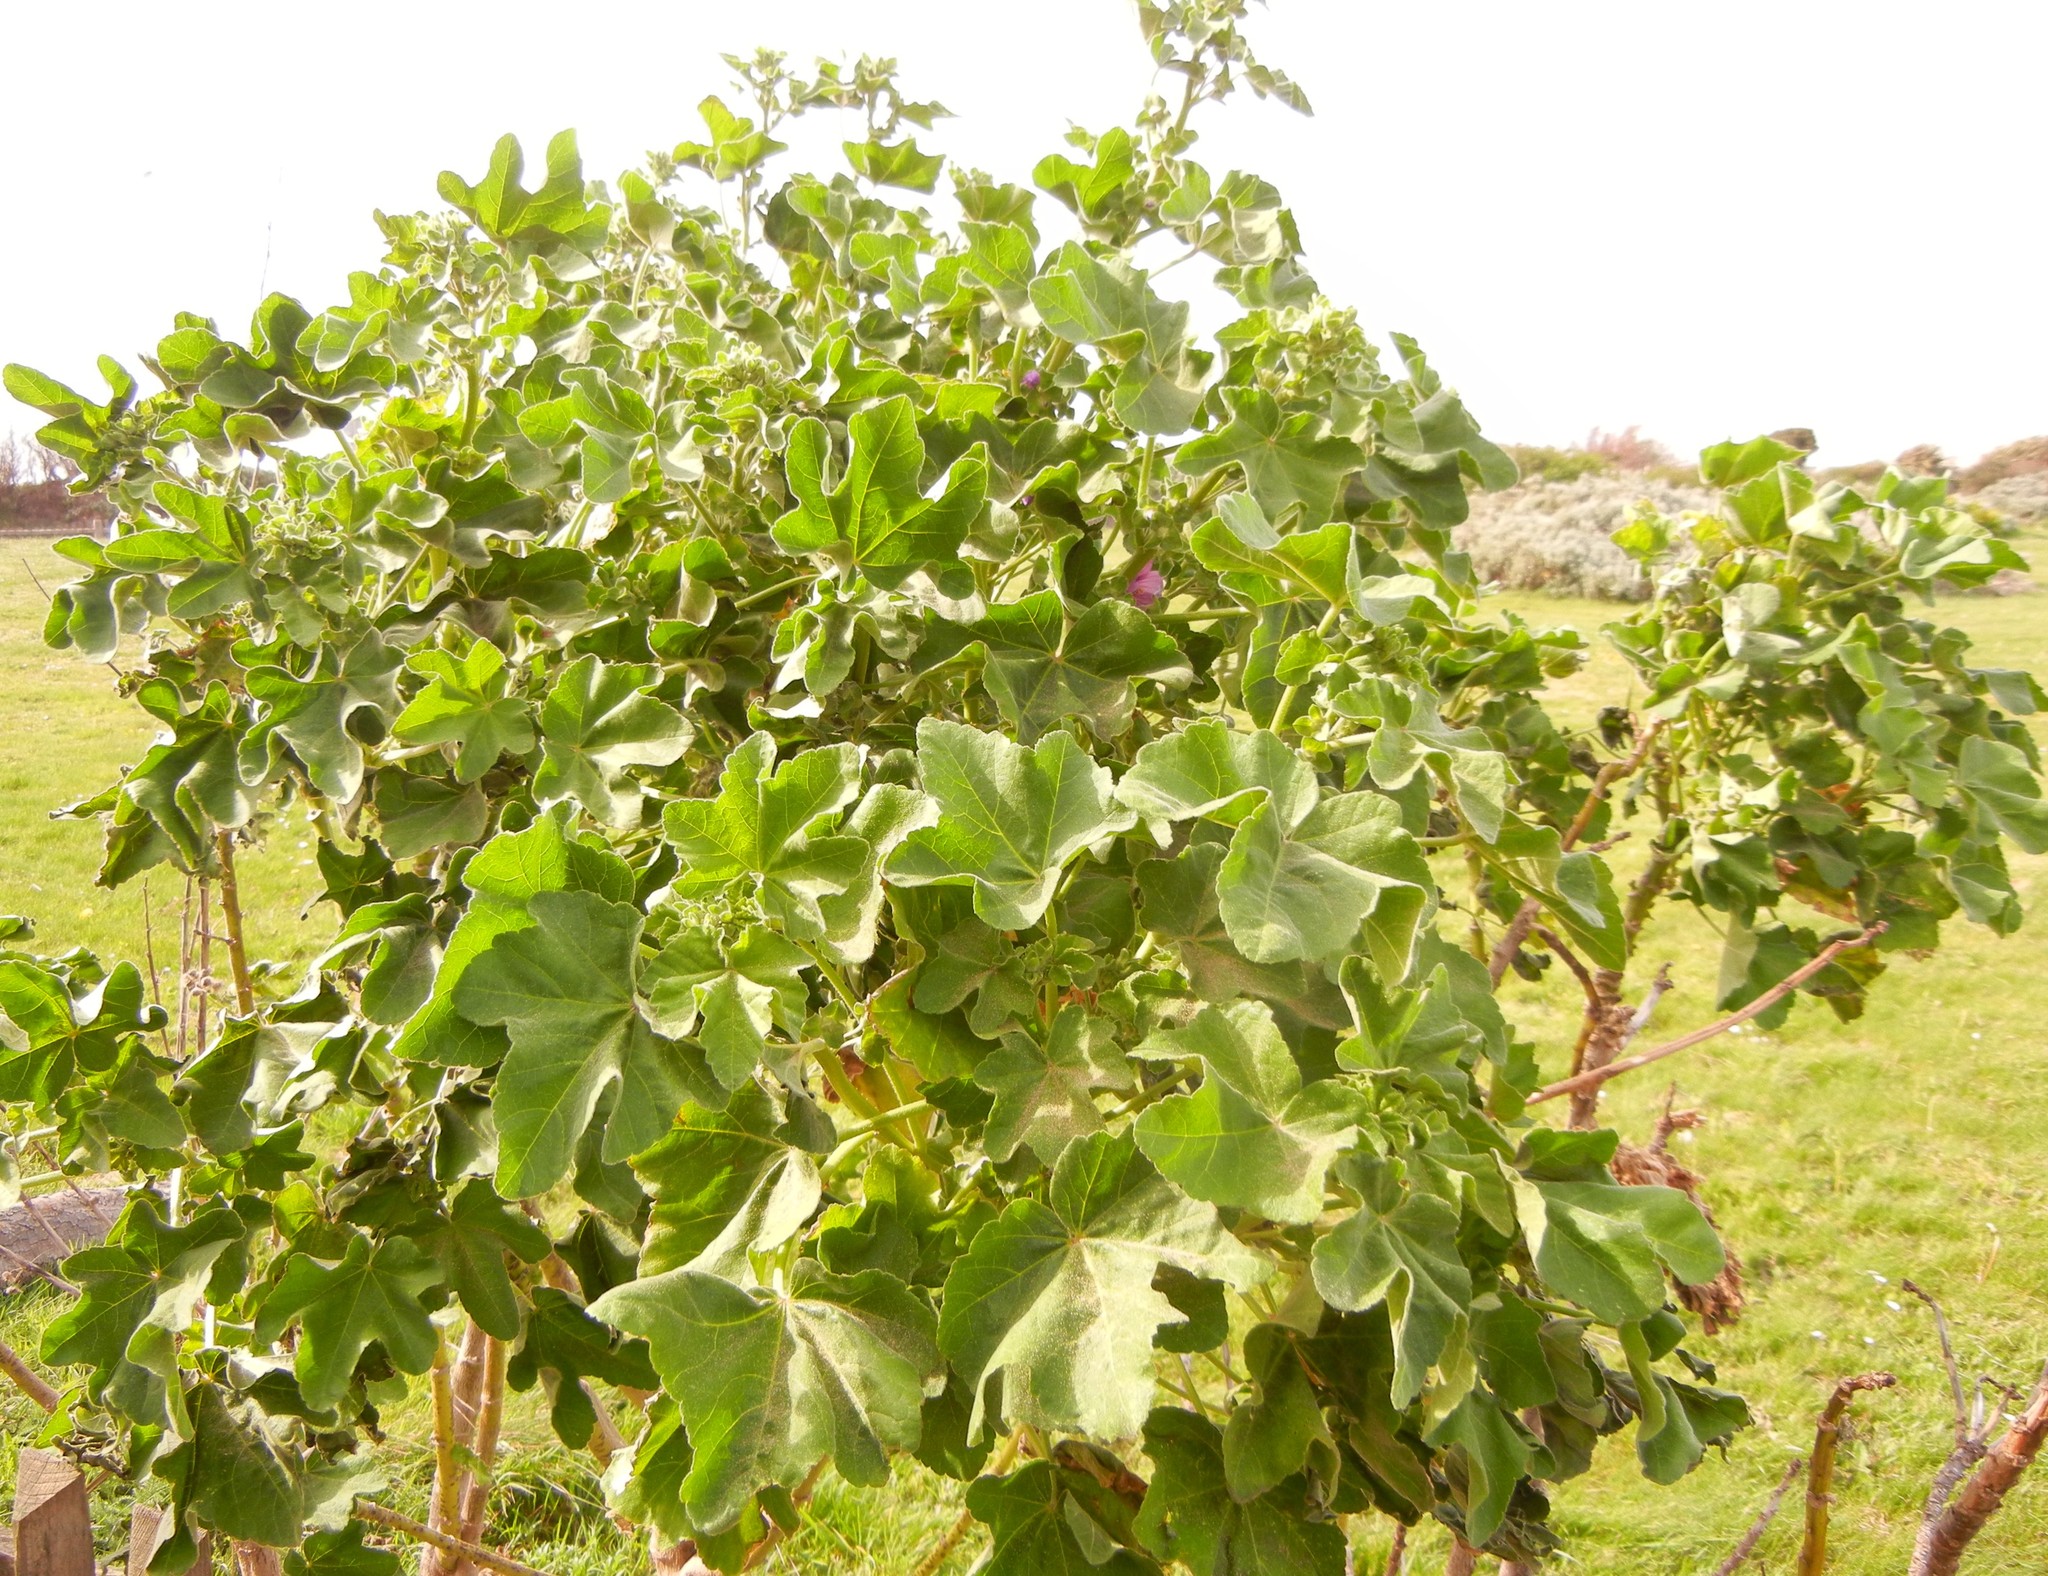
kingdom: Plantae
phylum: Tracheophyta
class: Magnoliopsida
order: Malvales
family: Malvaceae
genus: Malva
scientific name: Malva arborea
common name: Tree mallow
